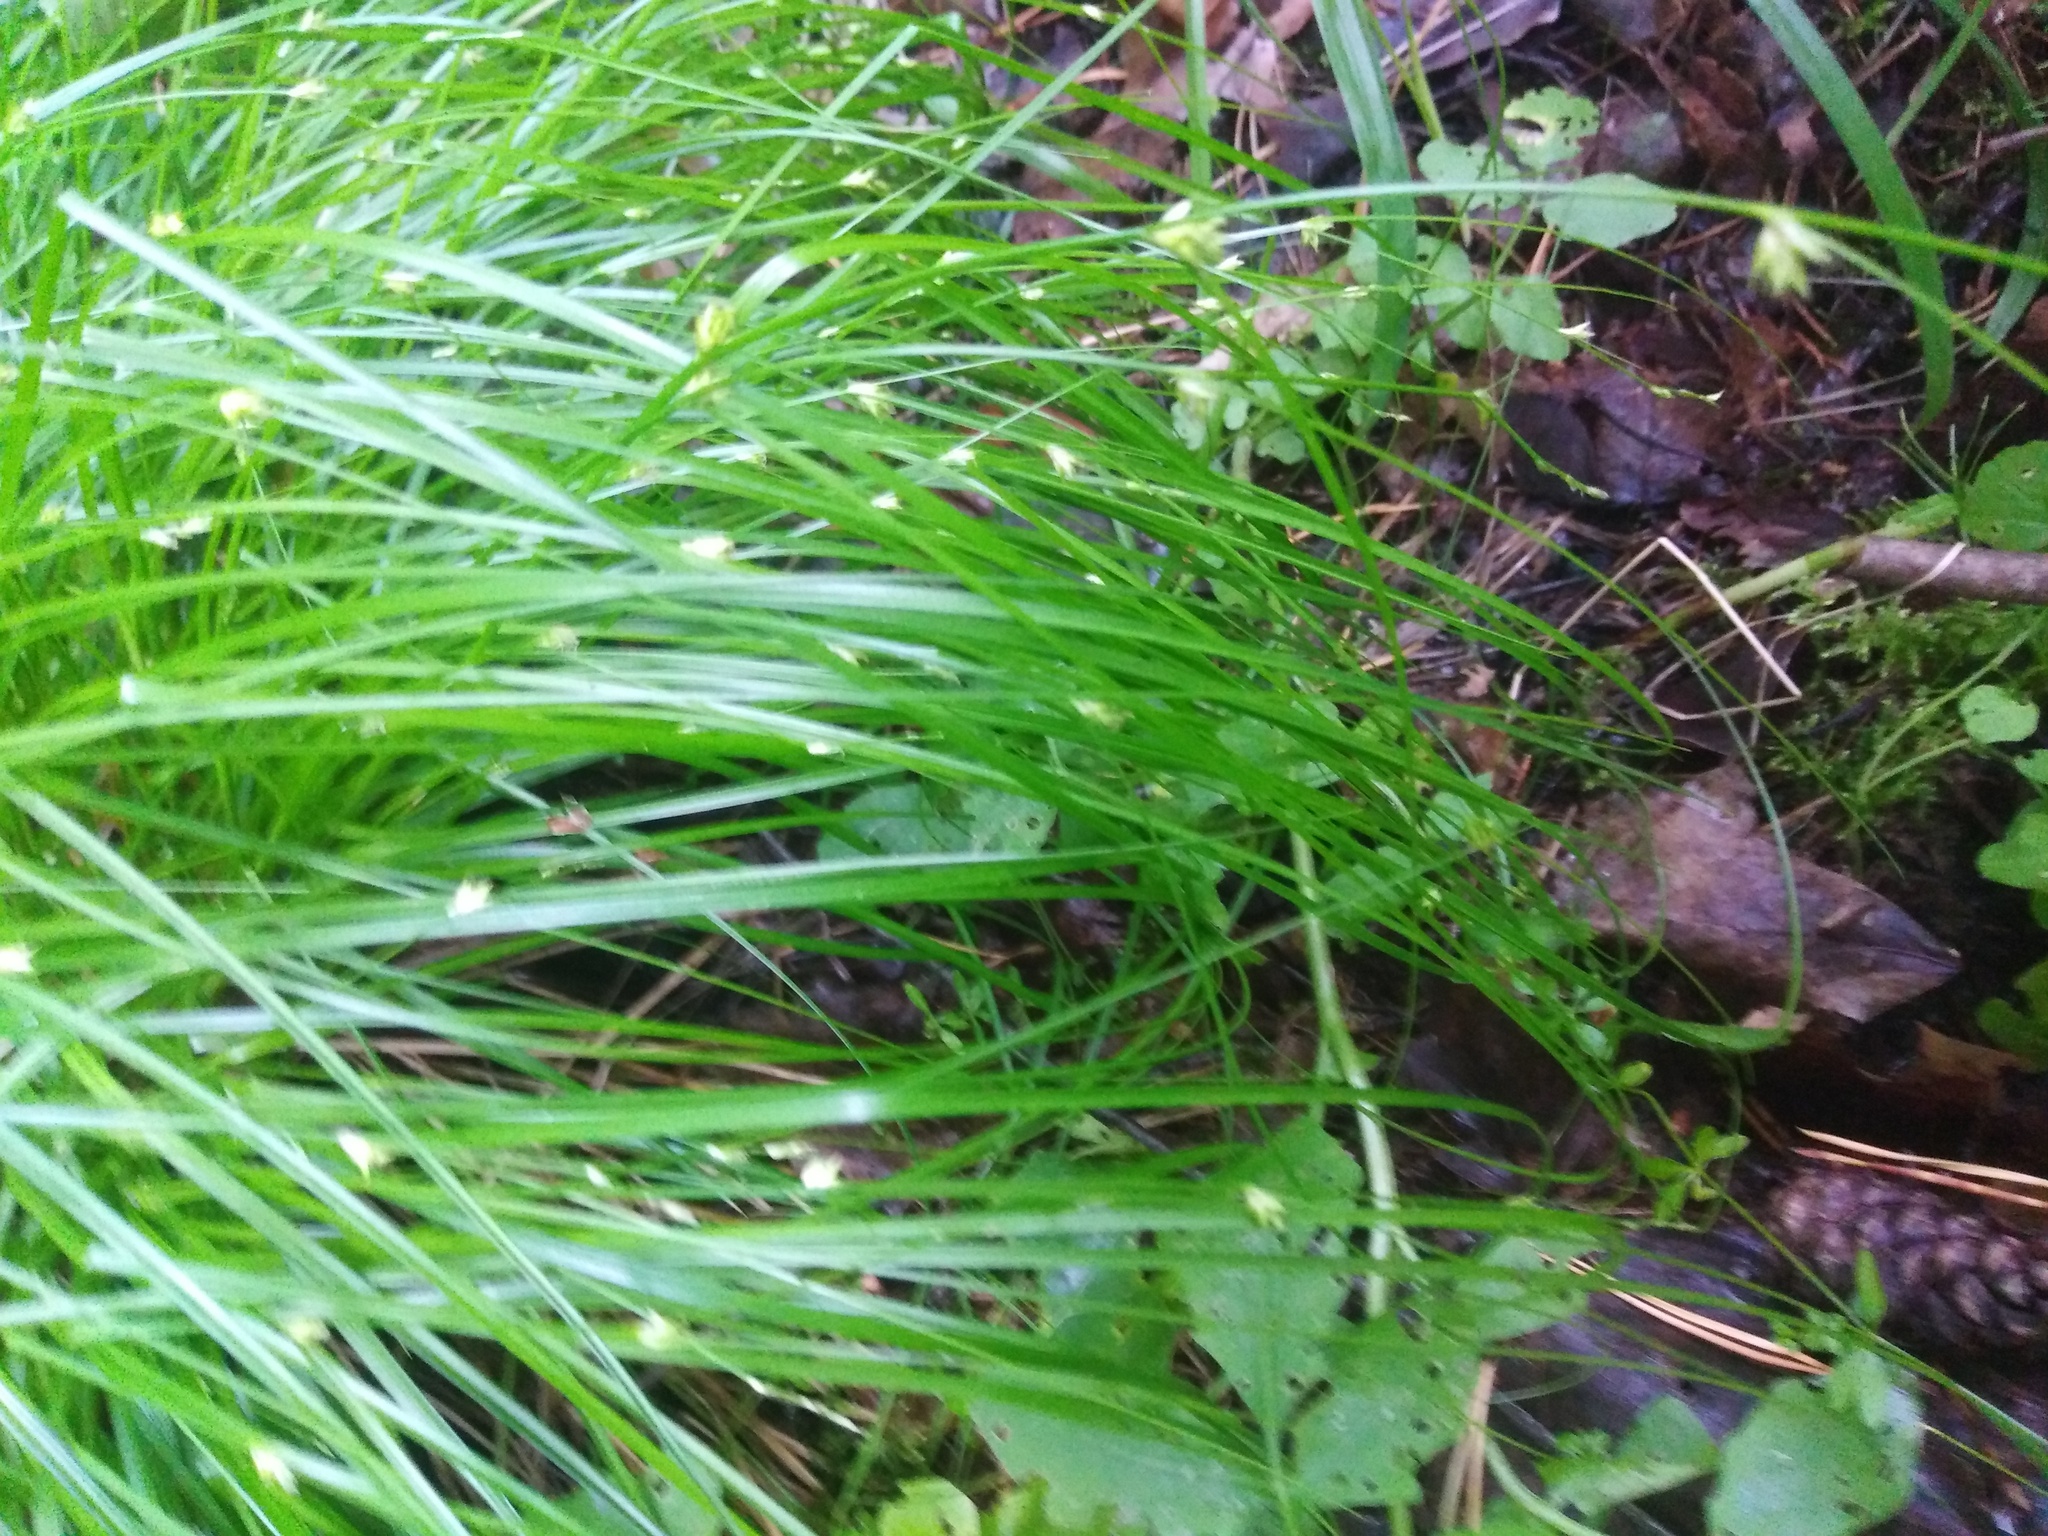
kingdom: Plantae
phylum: Tracheophyta
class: Liliopsida
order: Poales
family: Cyperaceae
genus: Carex
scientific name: Carex remota
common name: Remote sedge
